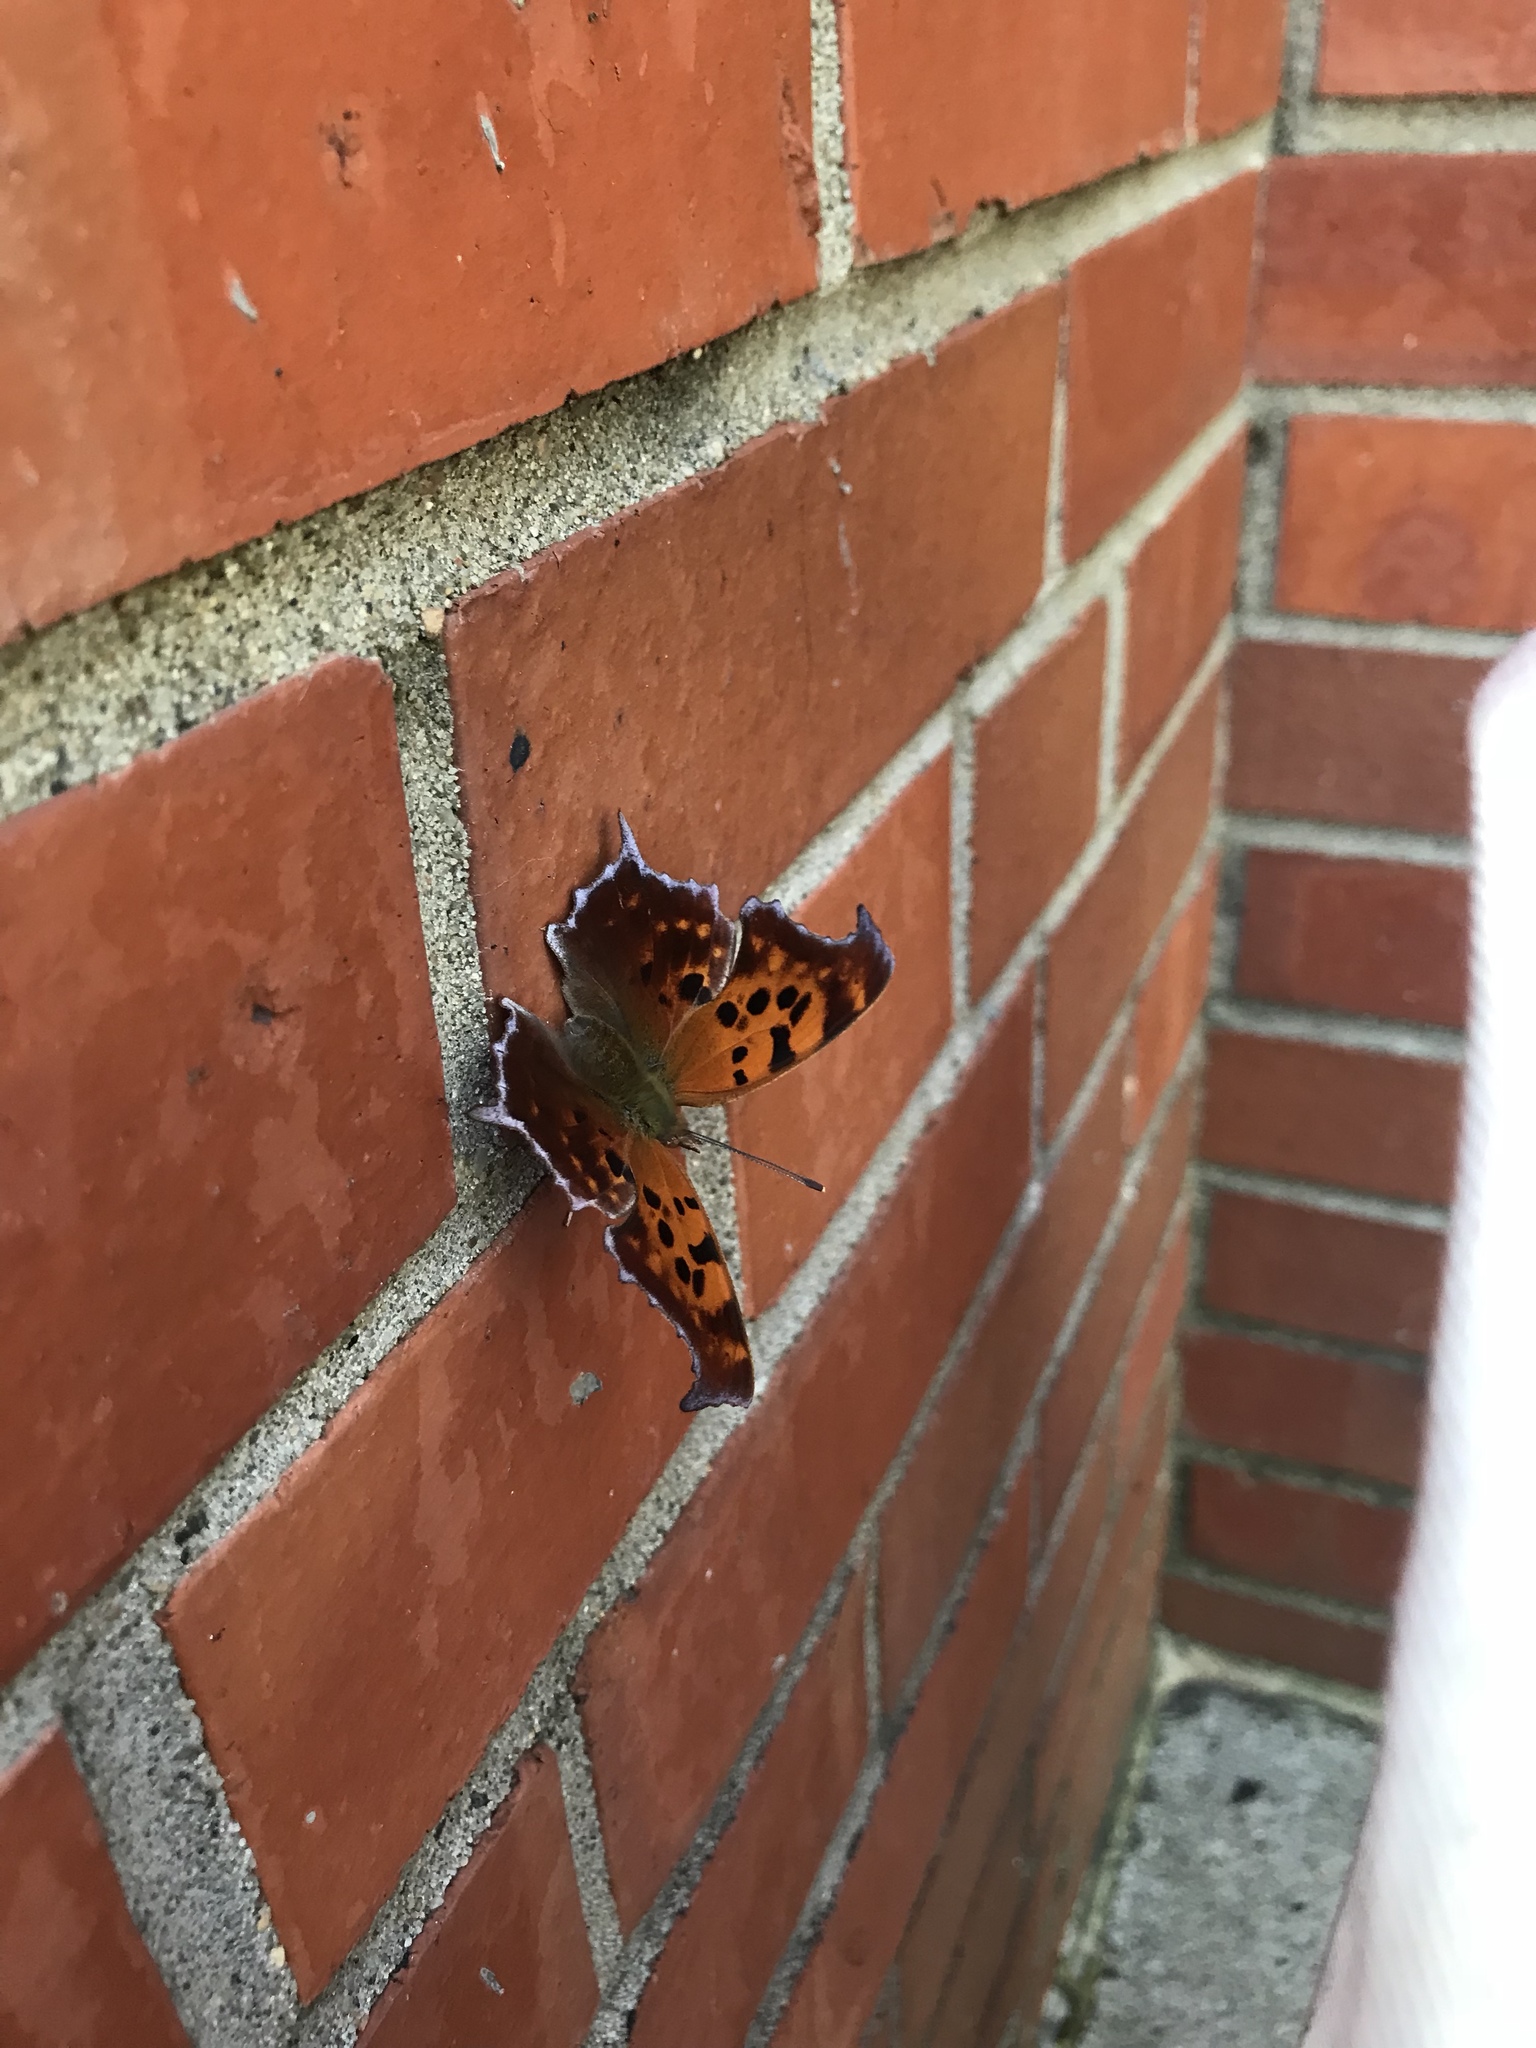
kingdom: Animalia
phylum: Arthropoda
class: Insecta
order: Lepidoptera
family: Nymphalidae
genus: Polygonia
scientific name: Polygonia interrogationis
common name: Question mark
